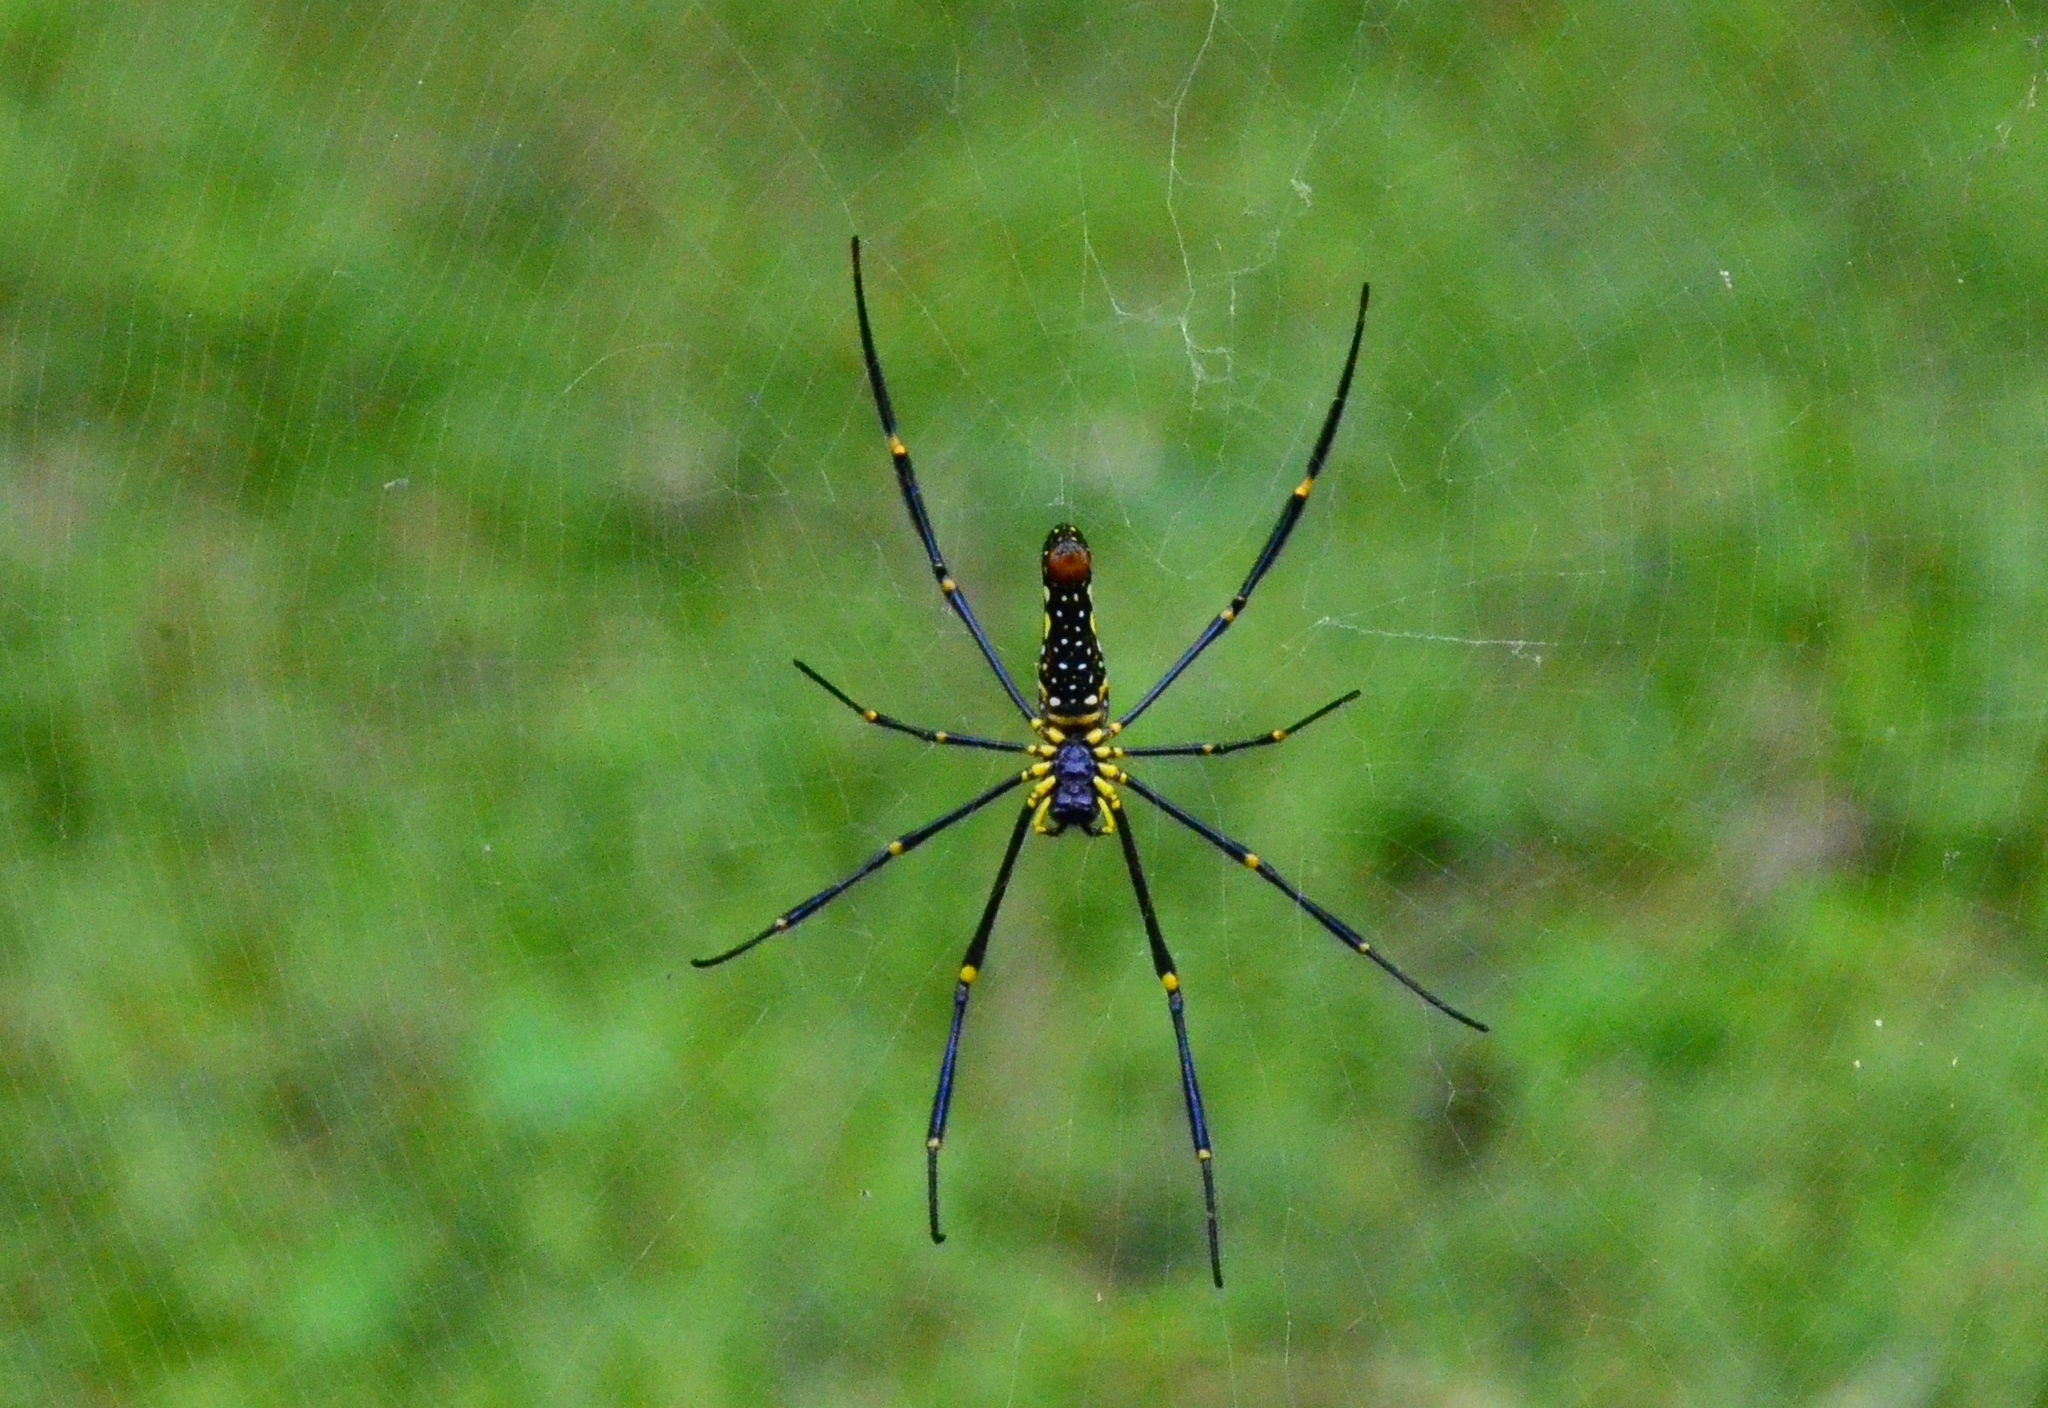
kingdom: Animalia
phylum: Arthropoda
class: Arachnida
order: Araneae
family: Araneidae
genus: Nephila
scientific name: Nephila pilipes
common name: Giant golden orb weaver
